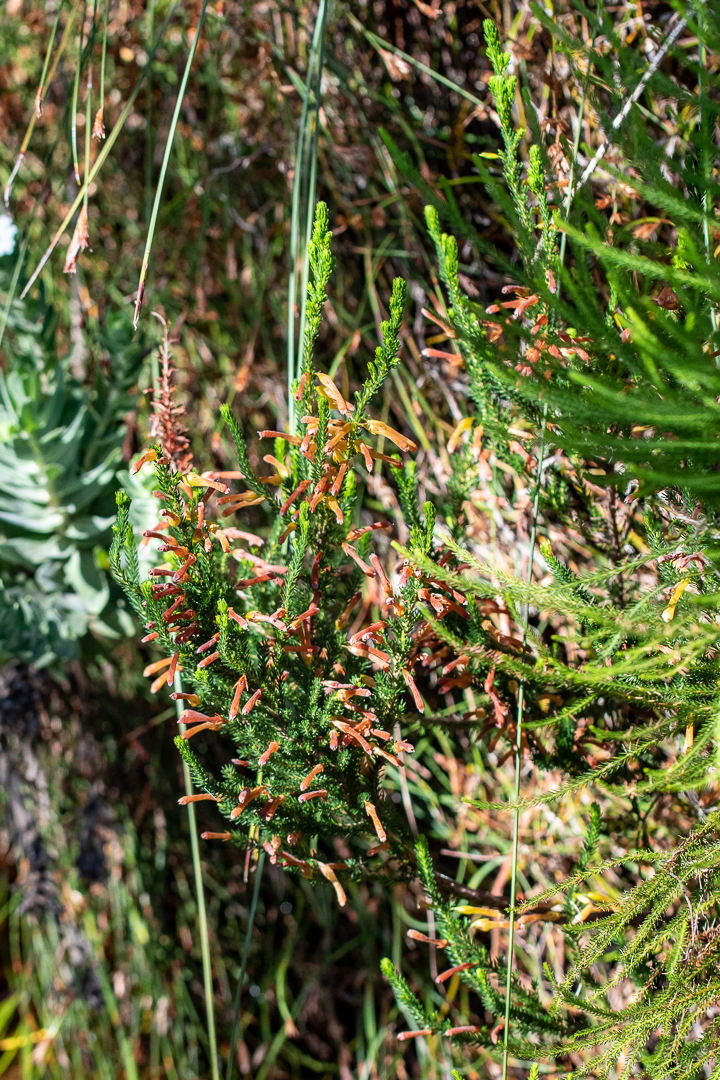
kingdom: Plantae
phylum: Tracheophyta
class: Magnoliopsida
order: Ericales
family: Ericaceae
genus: Erica
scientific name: Erica bibax
